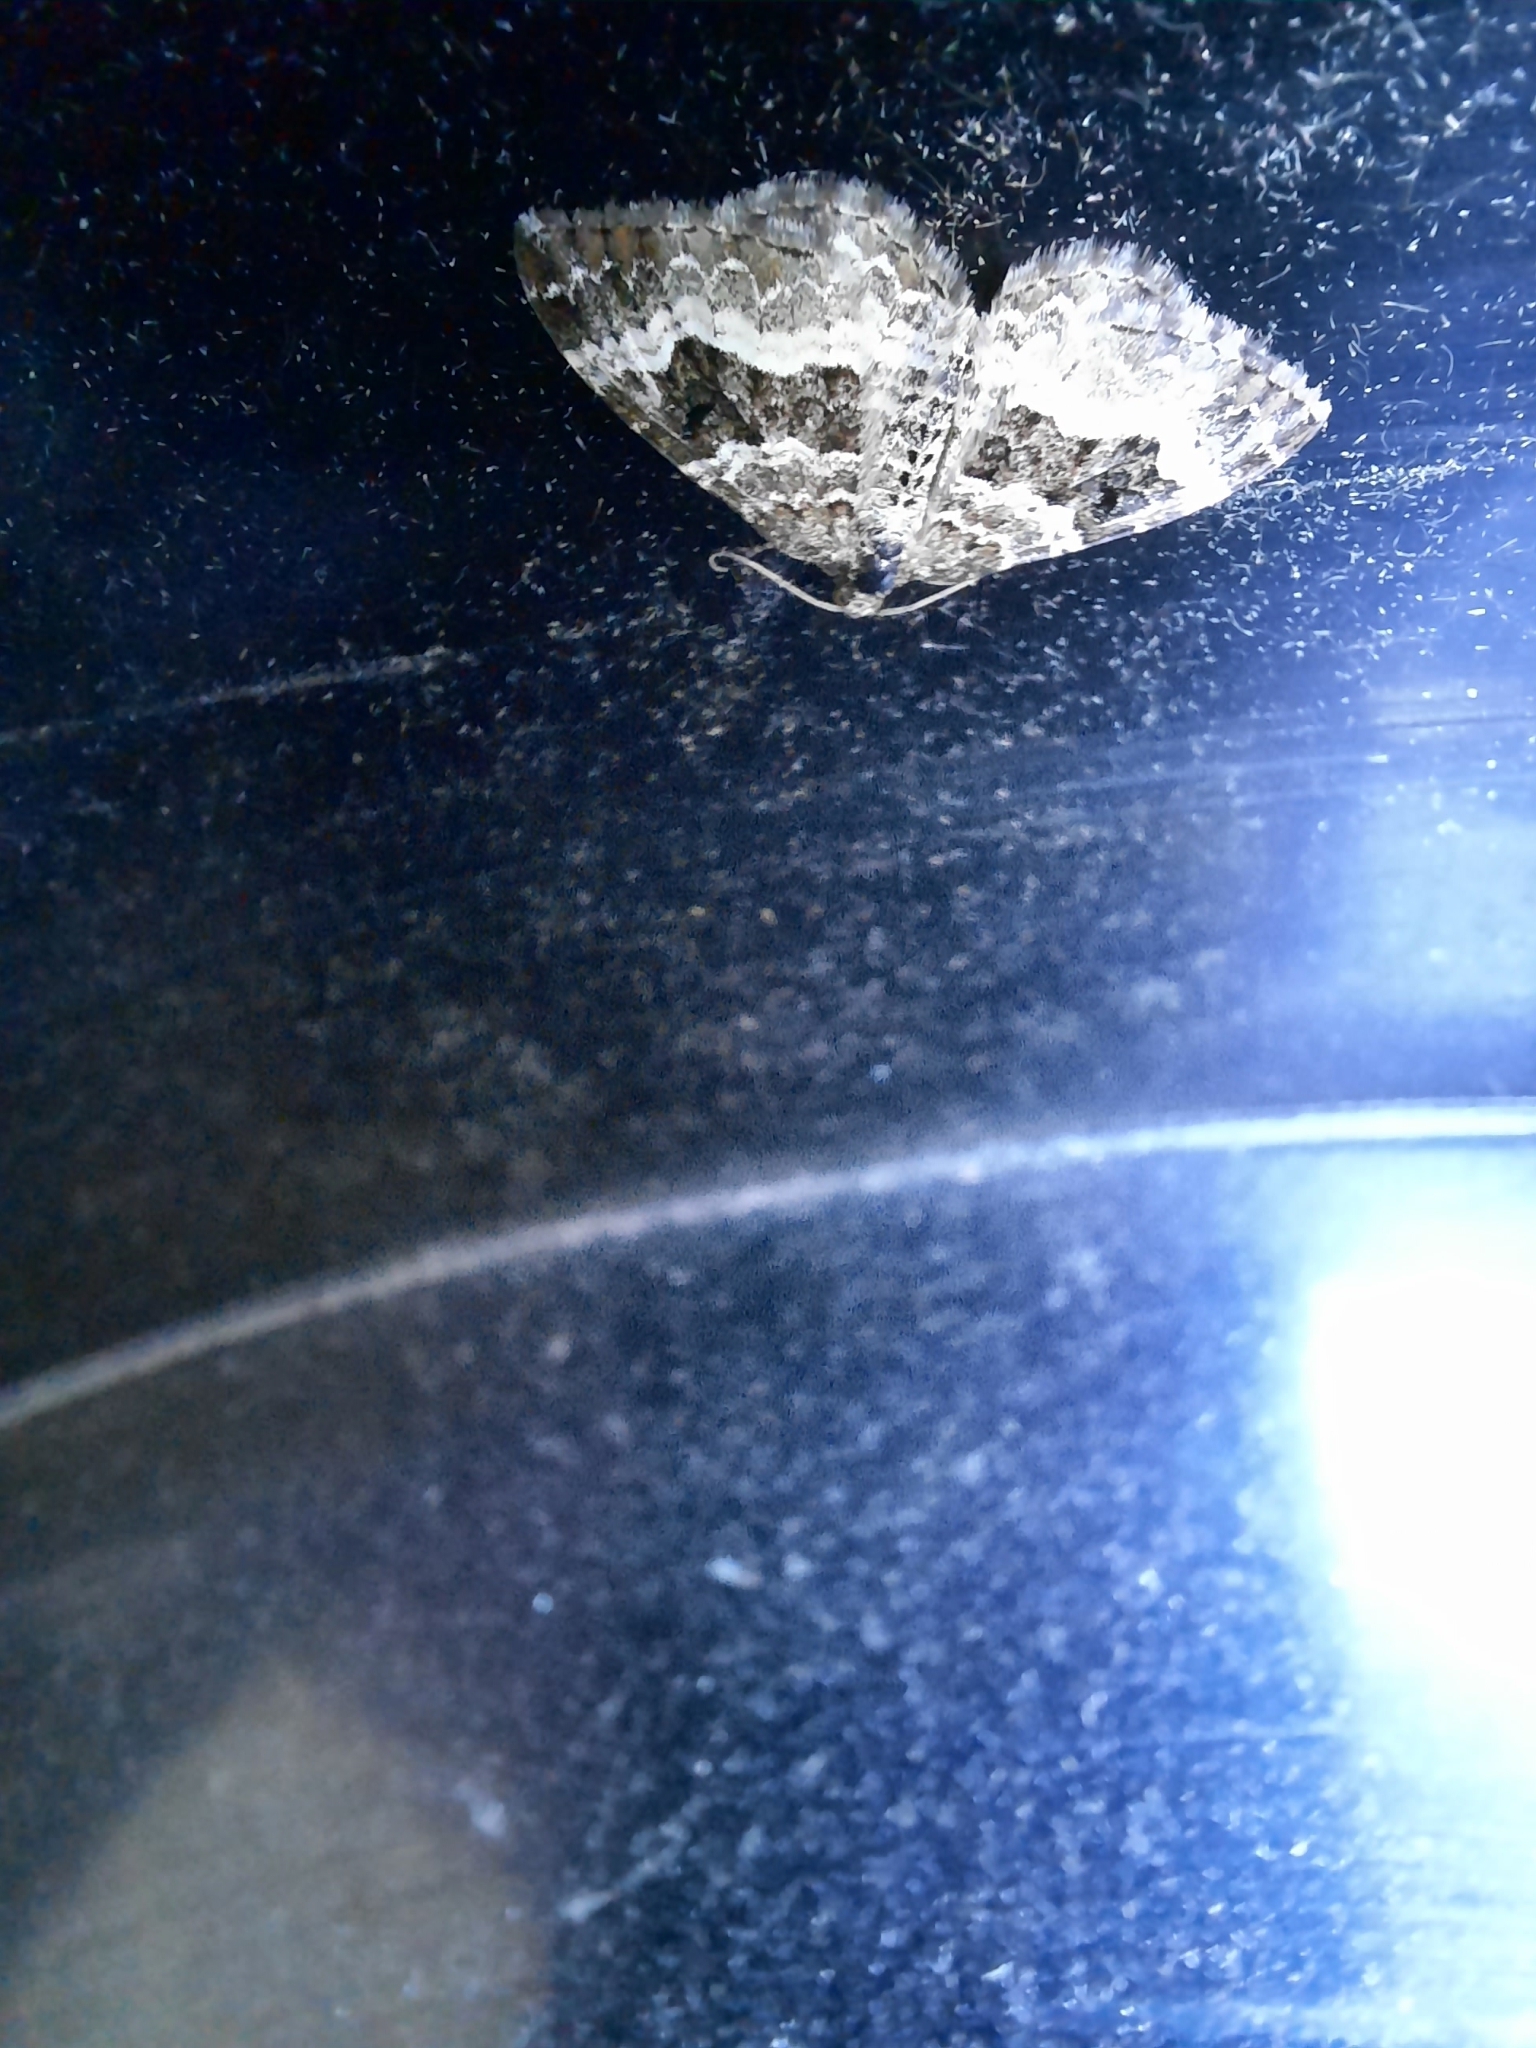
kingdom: Animalia
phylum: Arthropoda
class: Insecta
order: Lepidoptera
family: Geometridae
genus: Epirrhoe
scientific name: Epirrhoe alternata
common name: Common carpet
